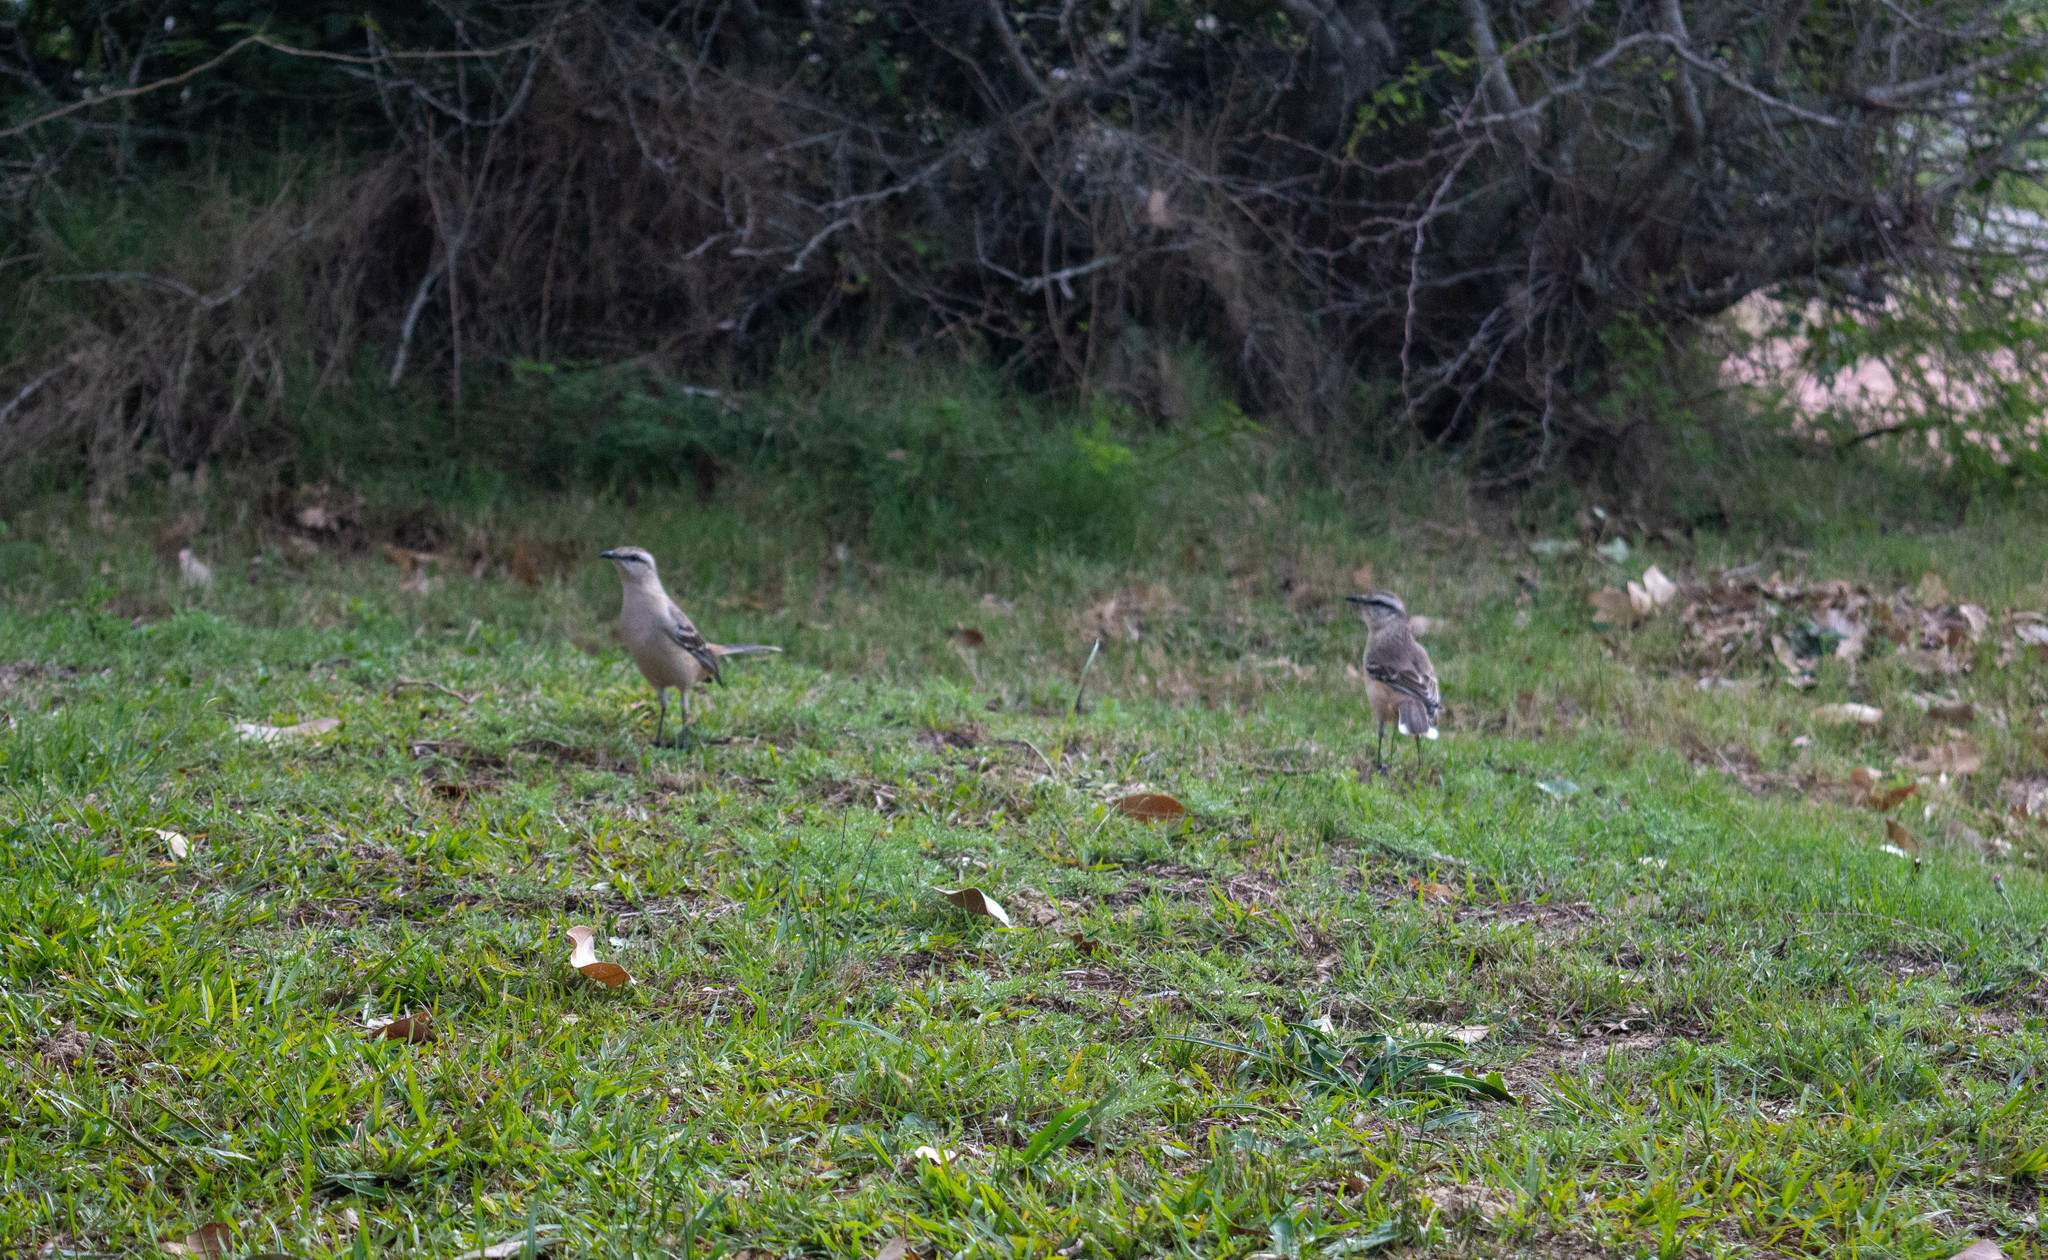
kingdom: Animalia
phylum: Chordata
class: Aves
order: Passeriformes
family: Mimidae
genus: Mimus
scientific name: Mimus saturninus
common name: Chalk-browed mockingbird
